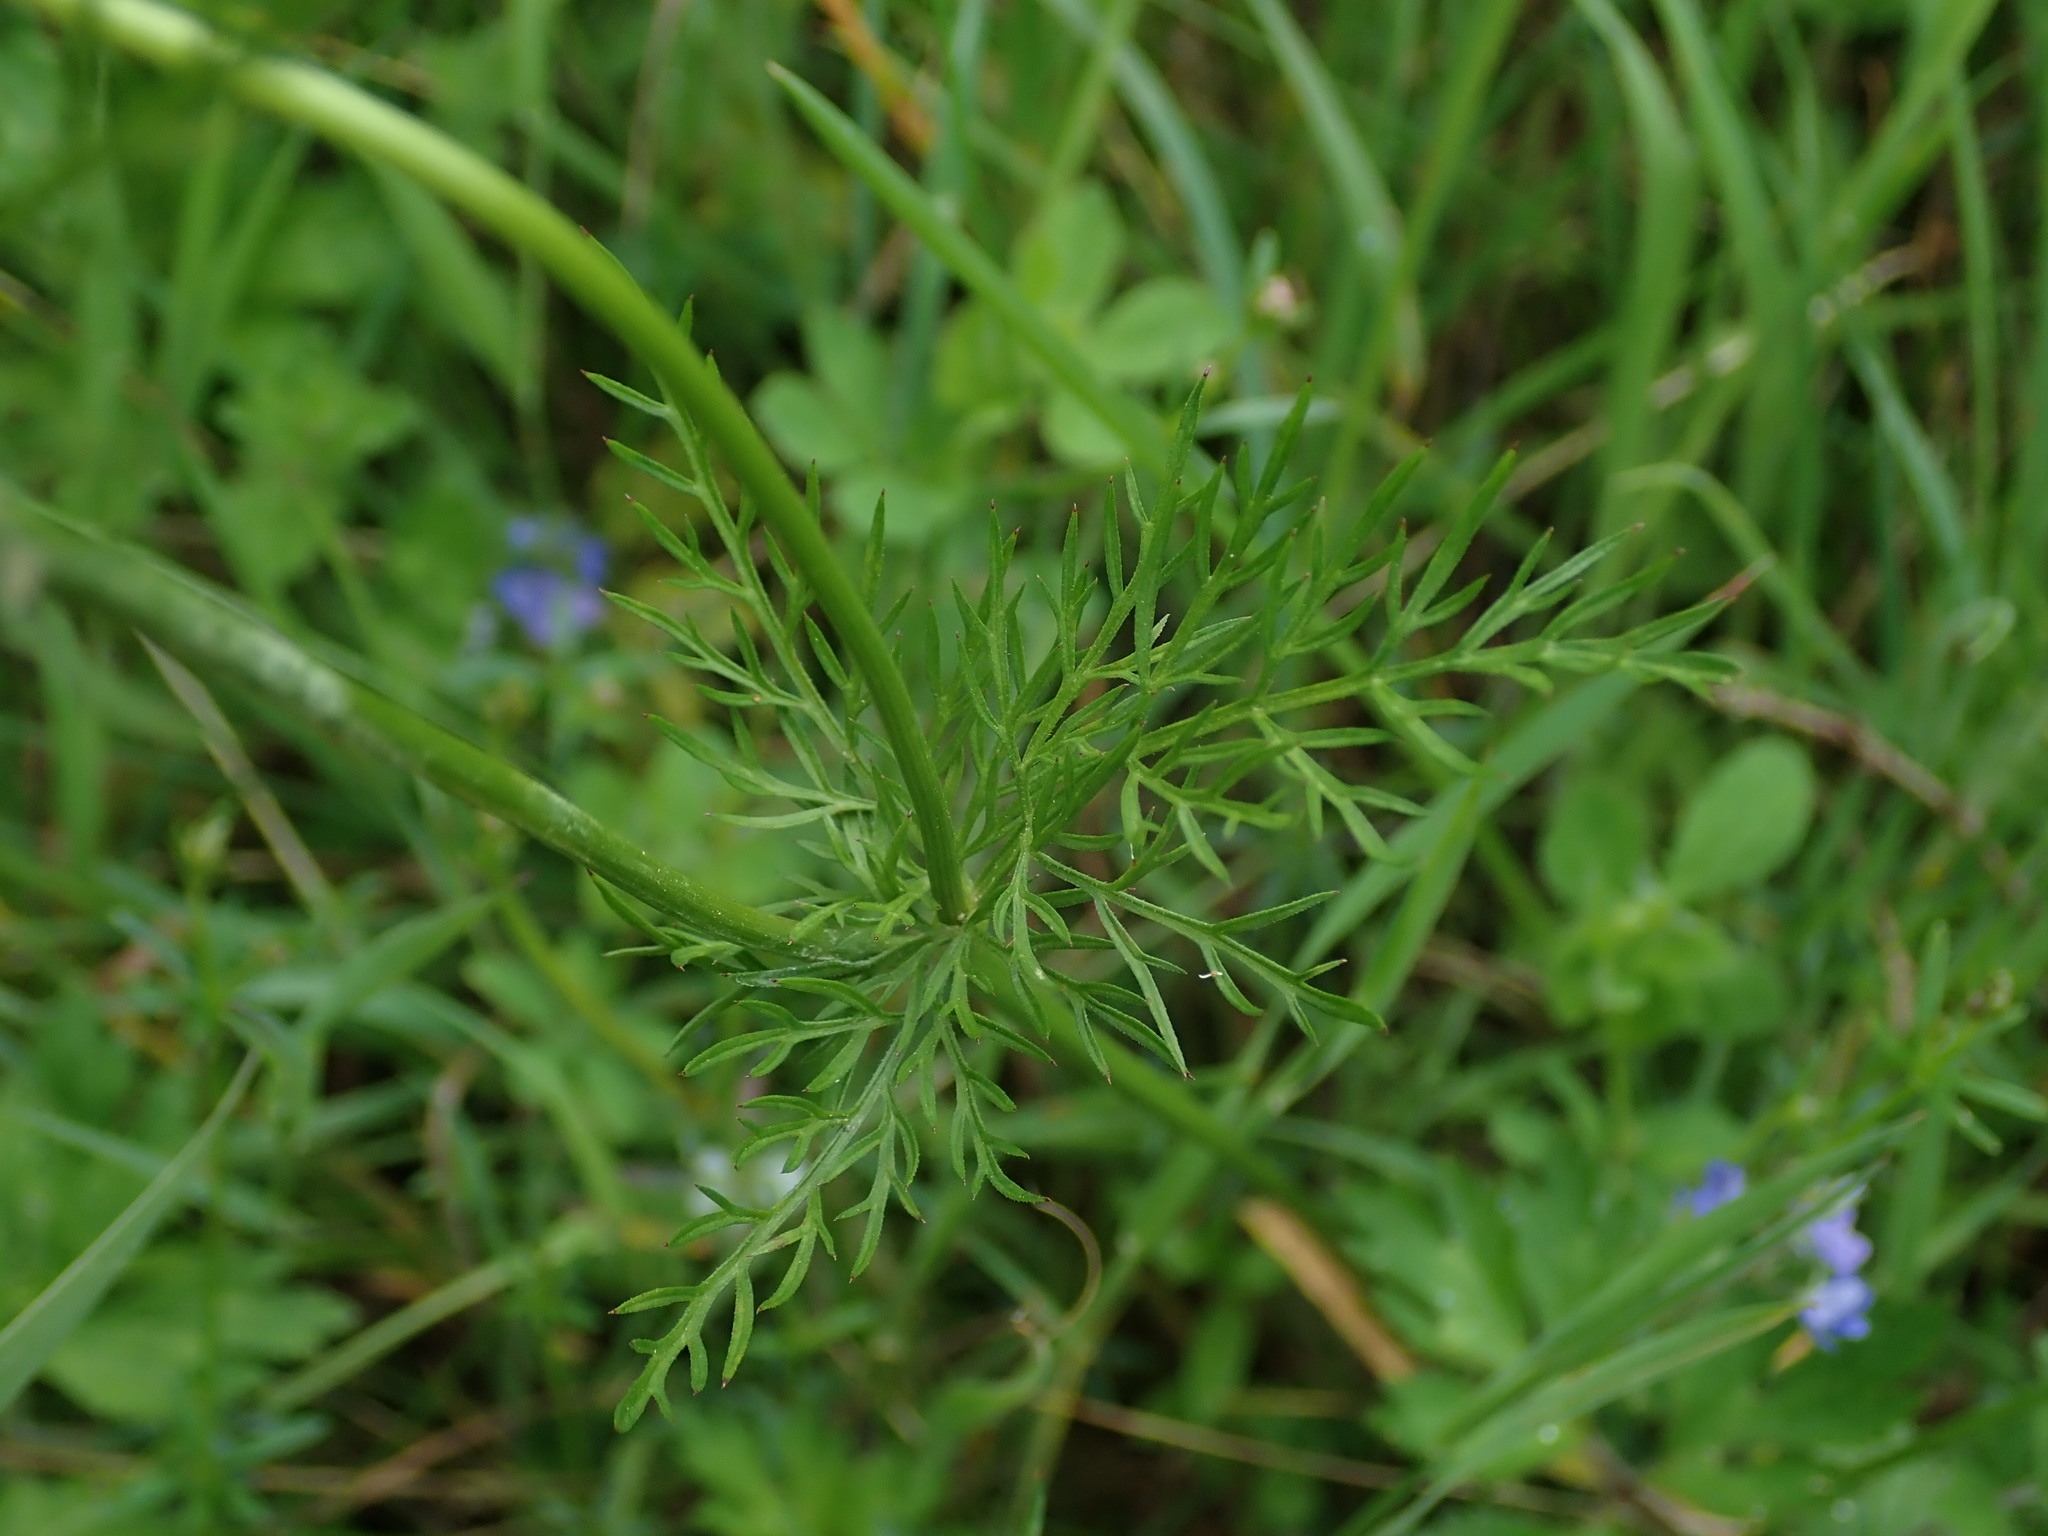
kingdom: Plantae
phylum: Tracheophyta
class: Magnoliopsida
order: Apiales
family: Apiaceae
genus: Conopodium
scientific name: Conopodium majus
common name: Pignut
